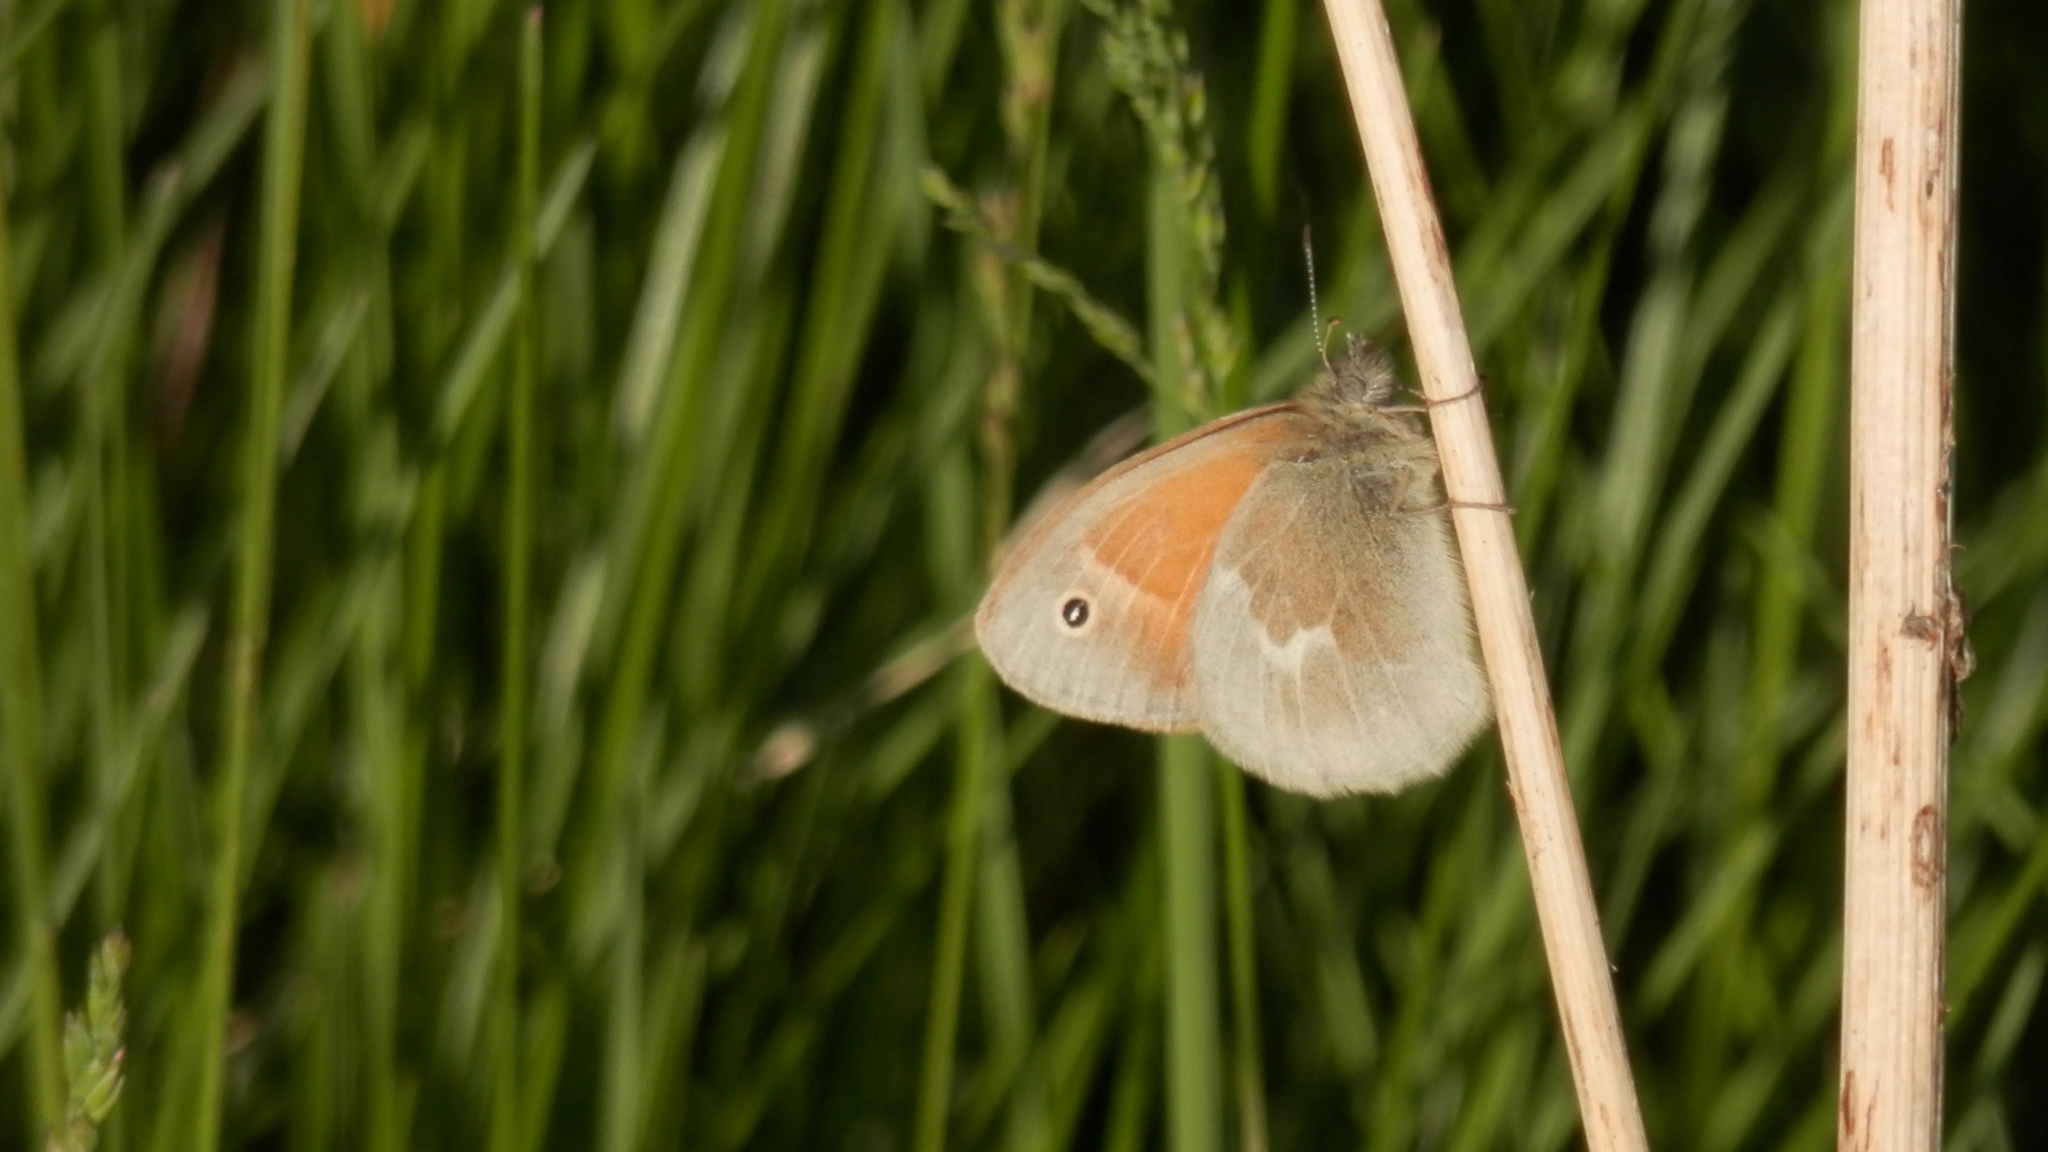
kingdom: Animalia
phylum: Arthropoda
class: Insecta
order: Lepidoptera
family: Nymphalidae
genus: Coenonympha
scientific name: Coenonympha california
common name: Common ringlet
